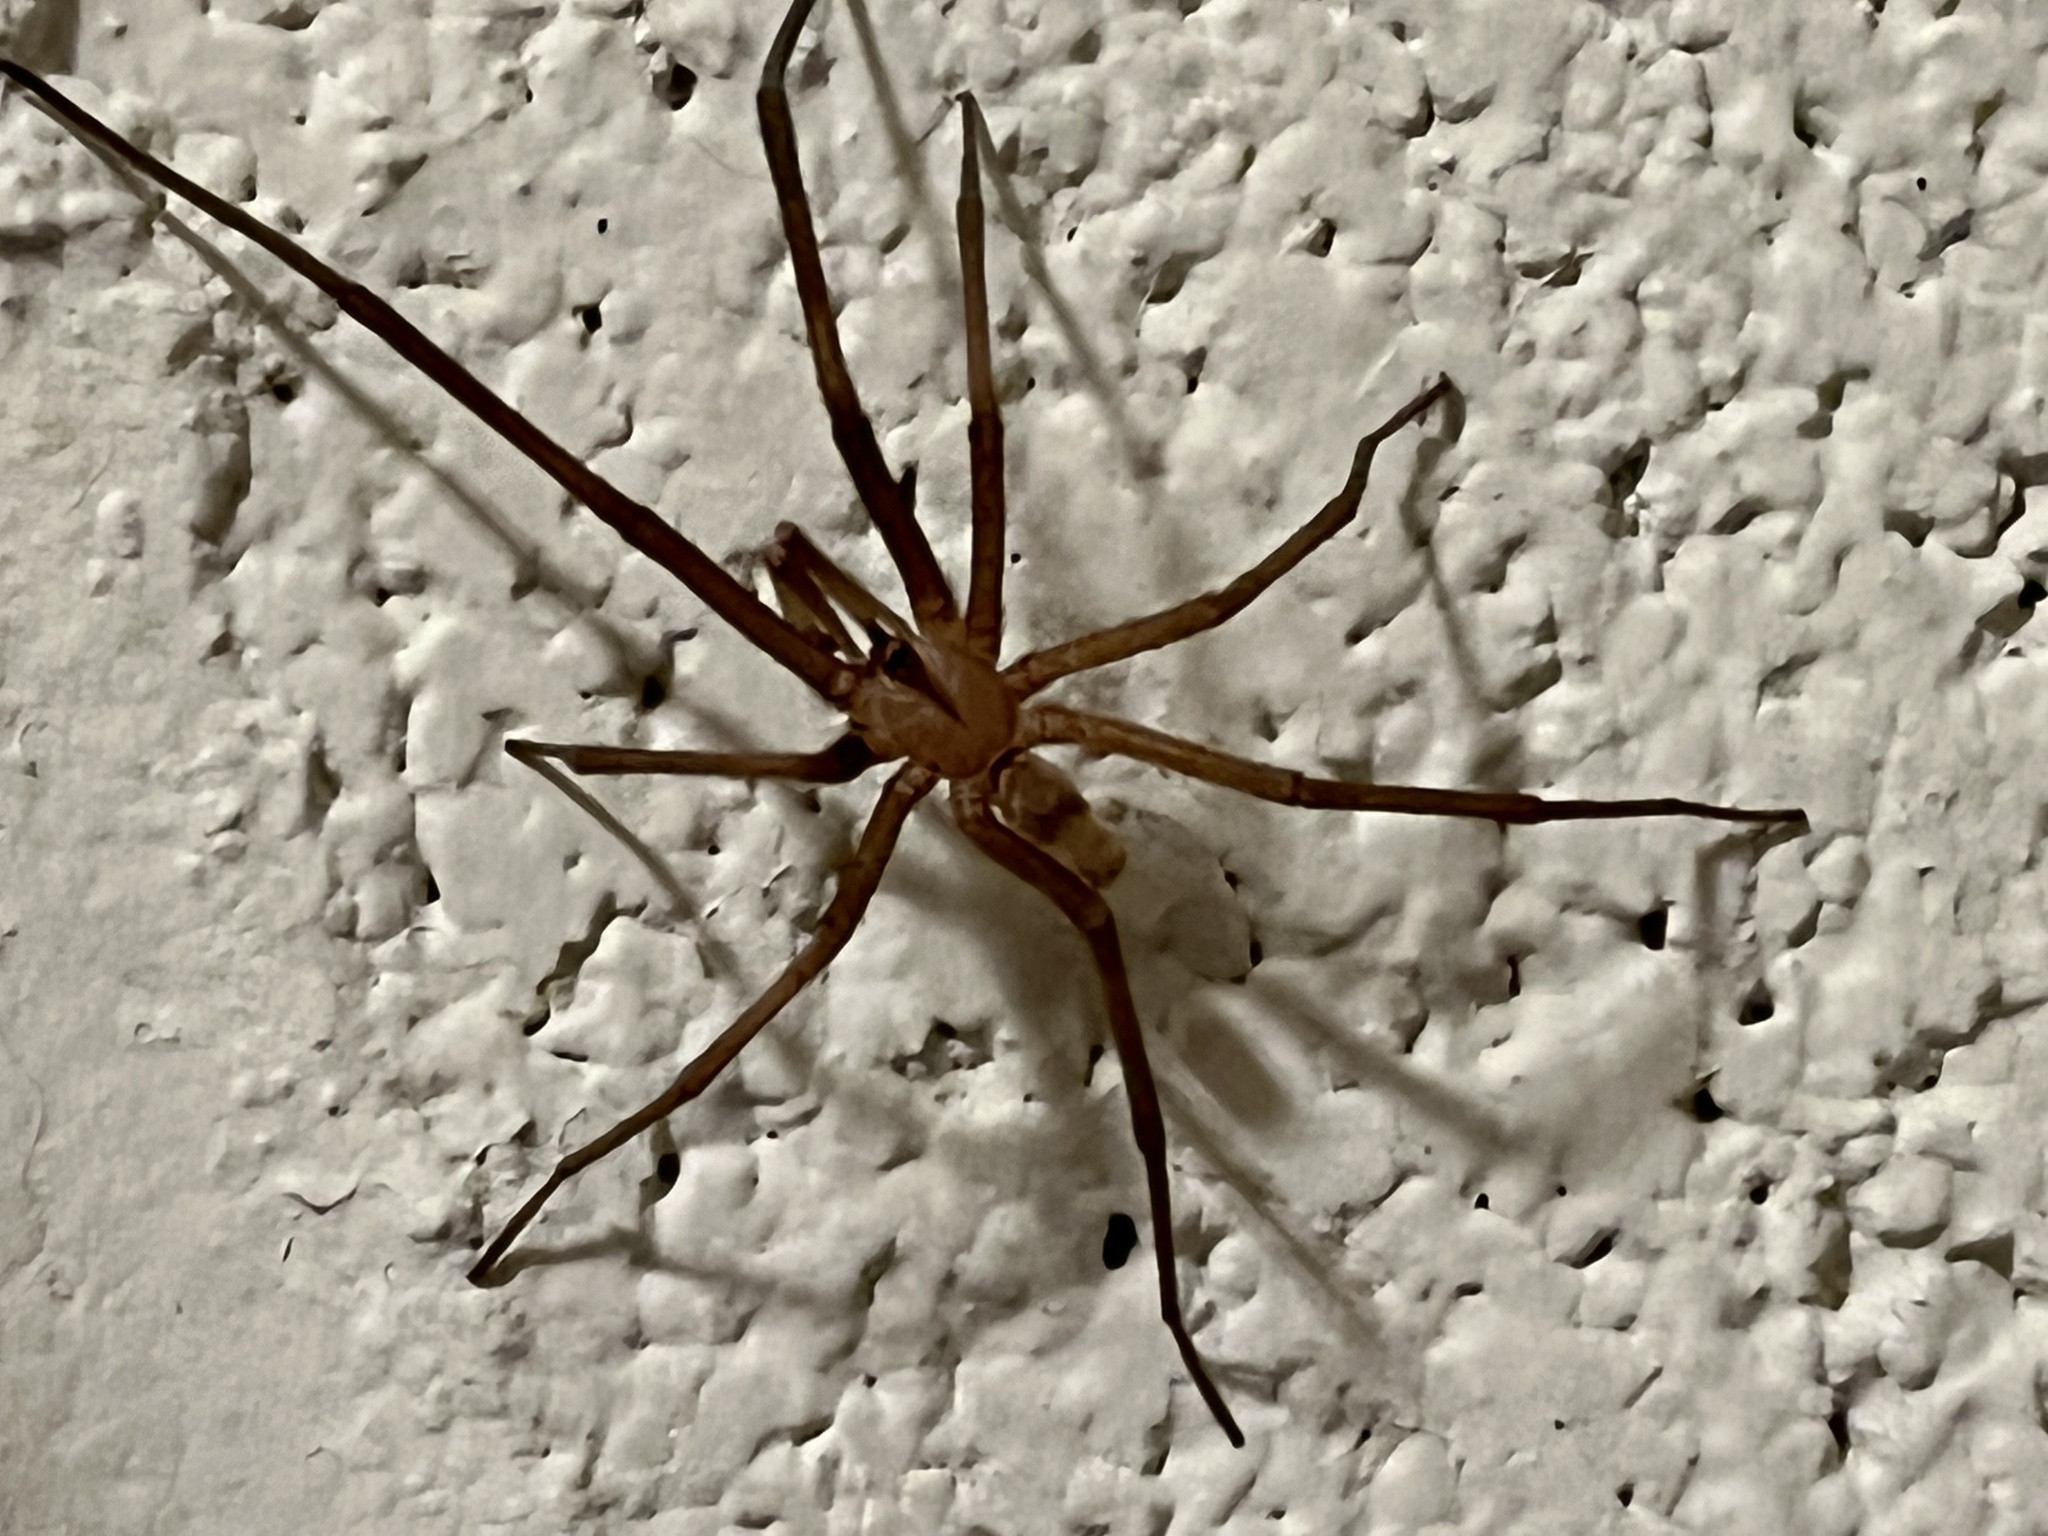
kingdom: Animalia
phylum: Arthropoda
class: Arachnida
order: Araneae
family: Filistatidae
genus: Kukulcania
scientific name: Kukulcania hibernalis
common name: Crevice weaver
